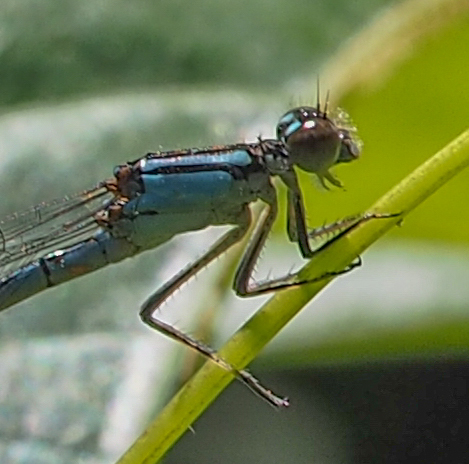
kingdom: Animalia
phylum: Arthropoda
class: Insecta
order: Odonata
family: Coenagrionidae
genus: Enallagma
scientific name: Enallagma aspersum
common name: Azure bluet
